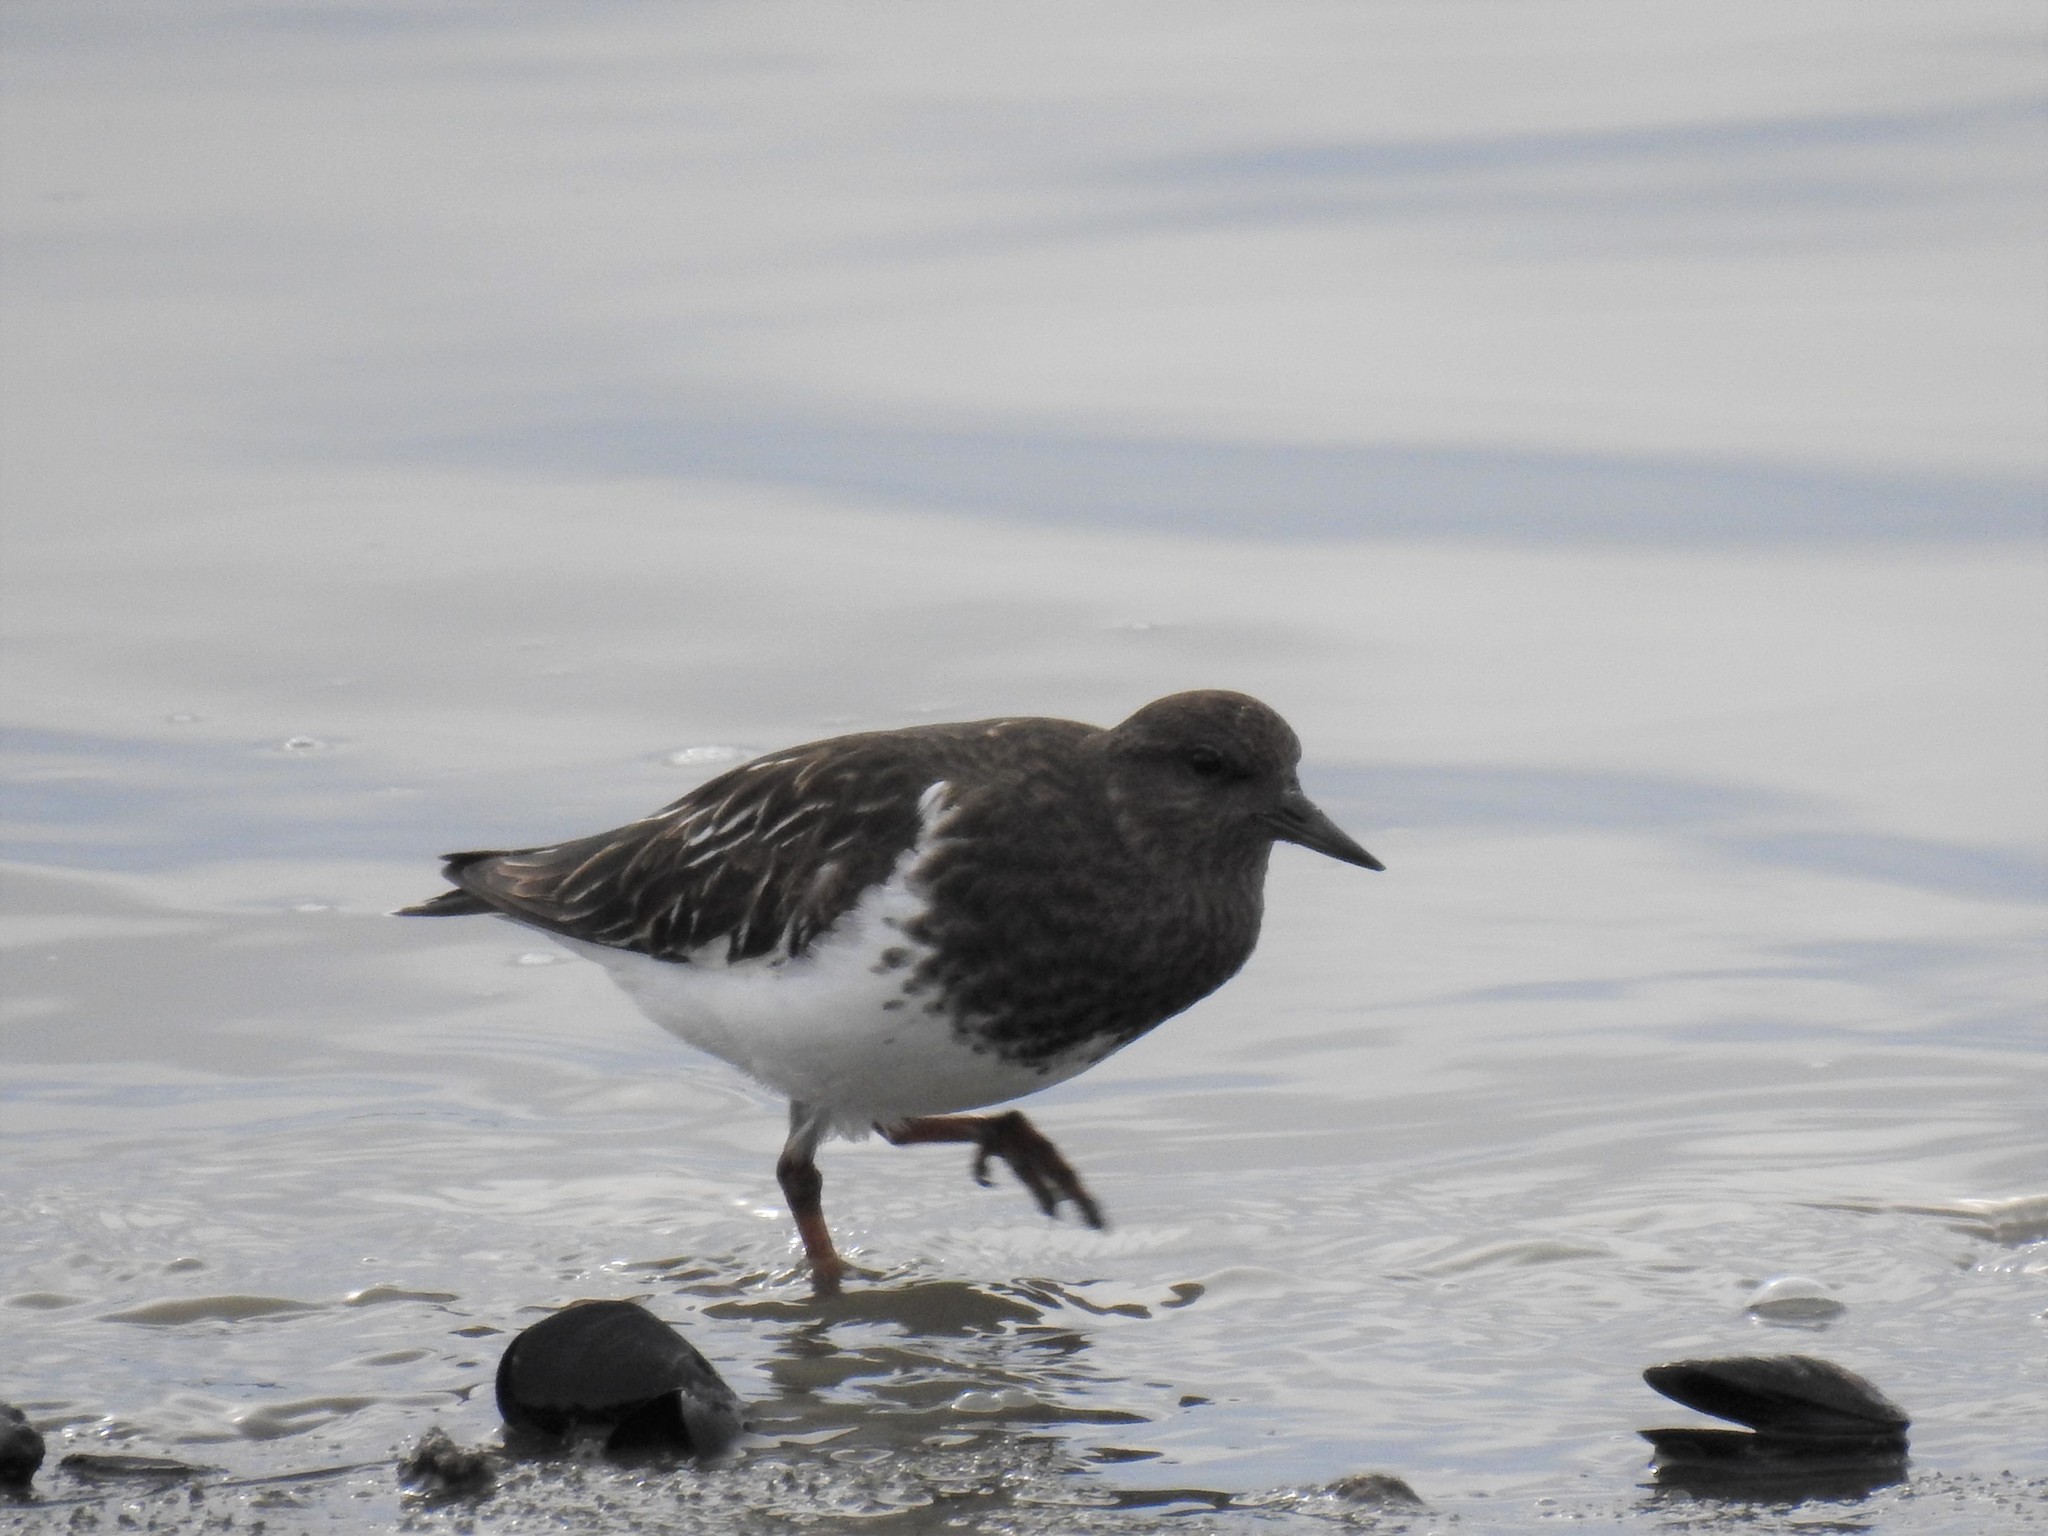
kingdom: Animalia
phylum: Chordata
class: Aves
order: Charadriiformes
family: Scolopacidae
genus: Arenaria
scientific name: Arenaria melanocephala
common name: Black turnstone
